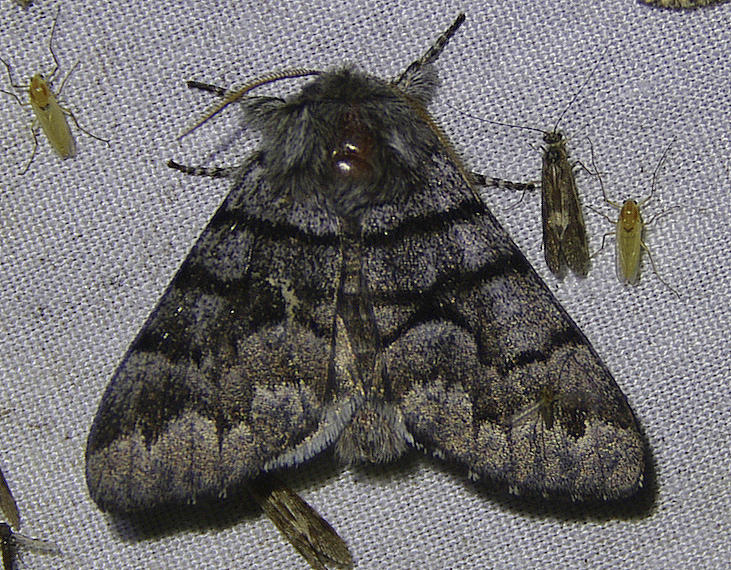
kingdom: Animalia
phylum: Arthropoda
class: Insecta
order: Lepidoptera
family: Noctuidae
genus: Panthea
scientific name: Panthea furcilla
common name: Eastern panthea moth
